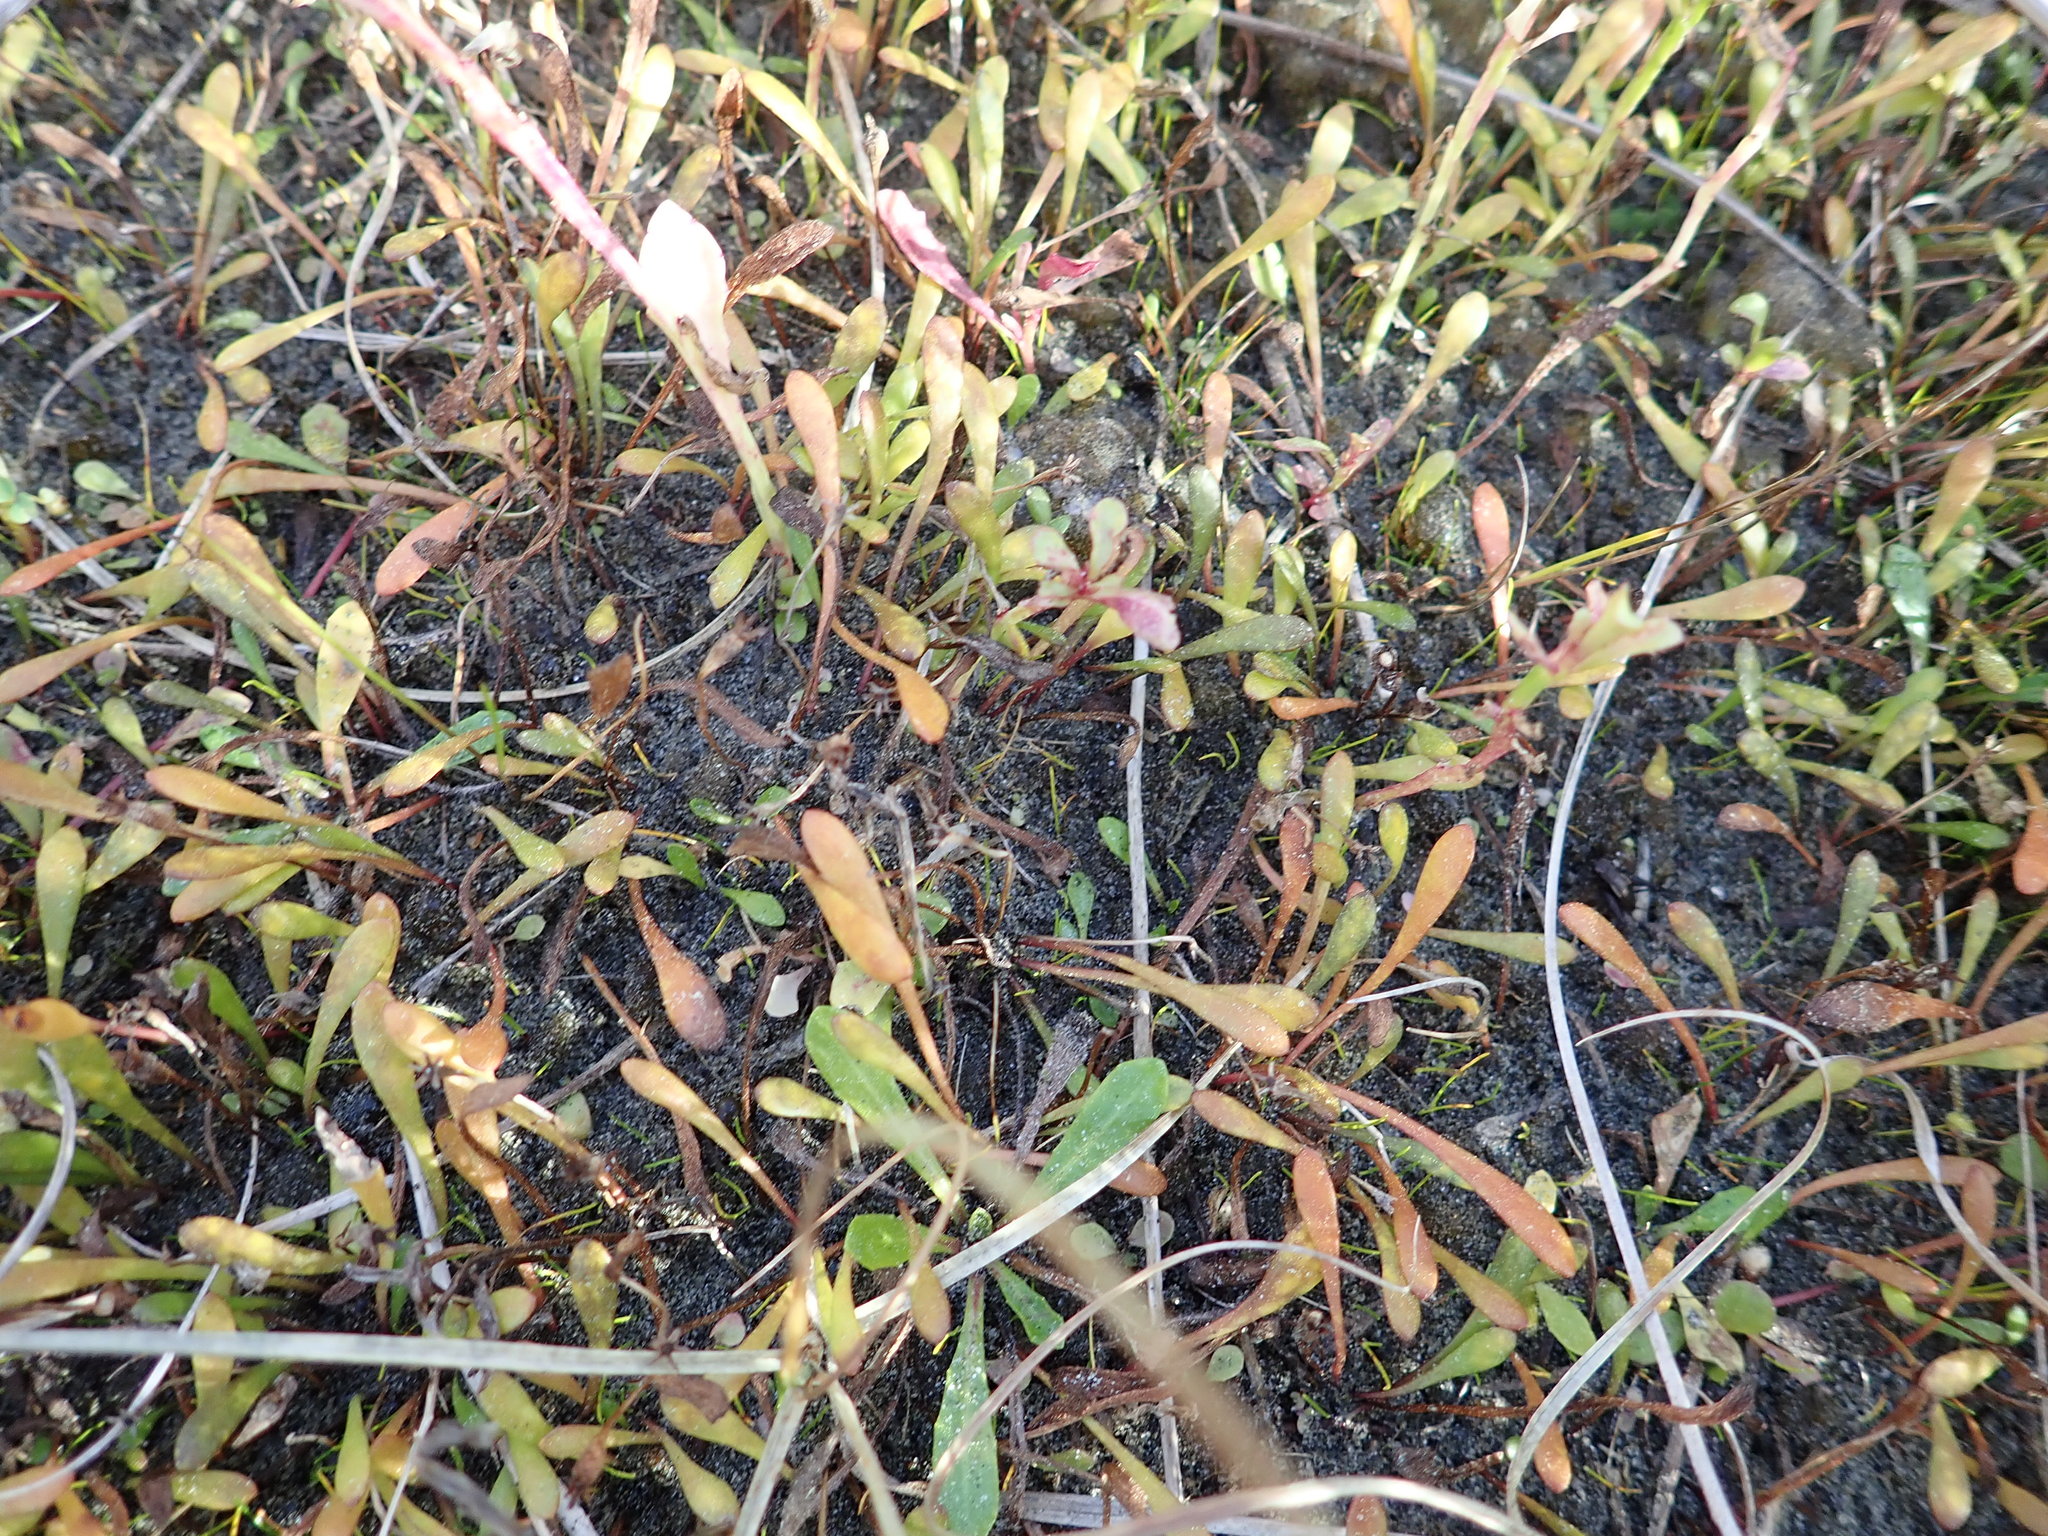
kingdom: Plantae
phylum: Tracheophyta
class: Magnoliopsida
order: Asterales
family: Goodeniaceae
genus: Goodenia
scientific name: Goodenia radicans
